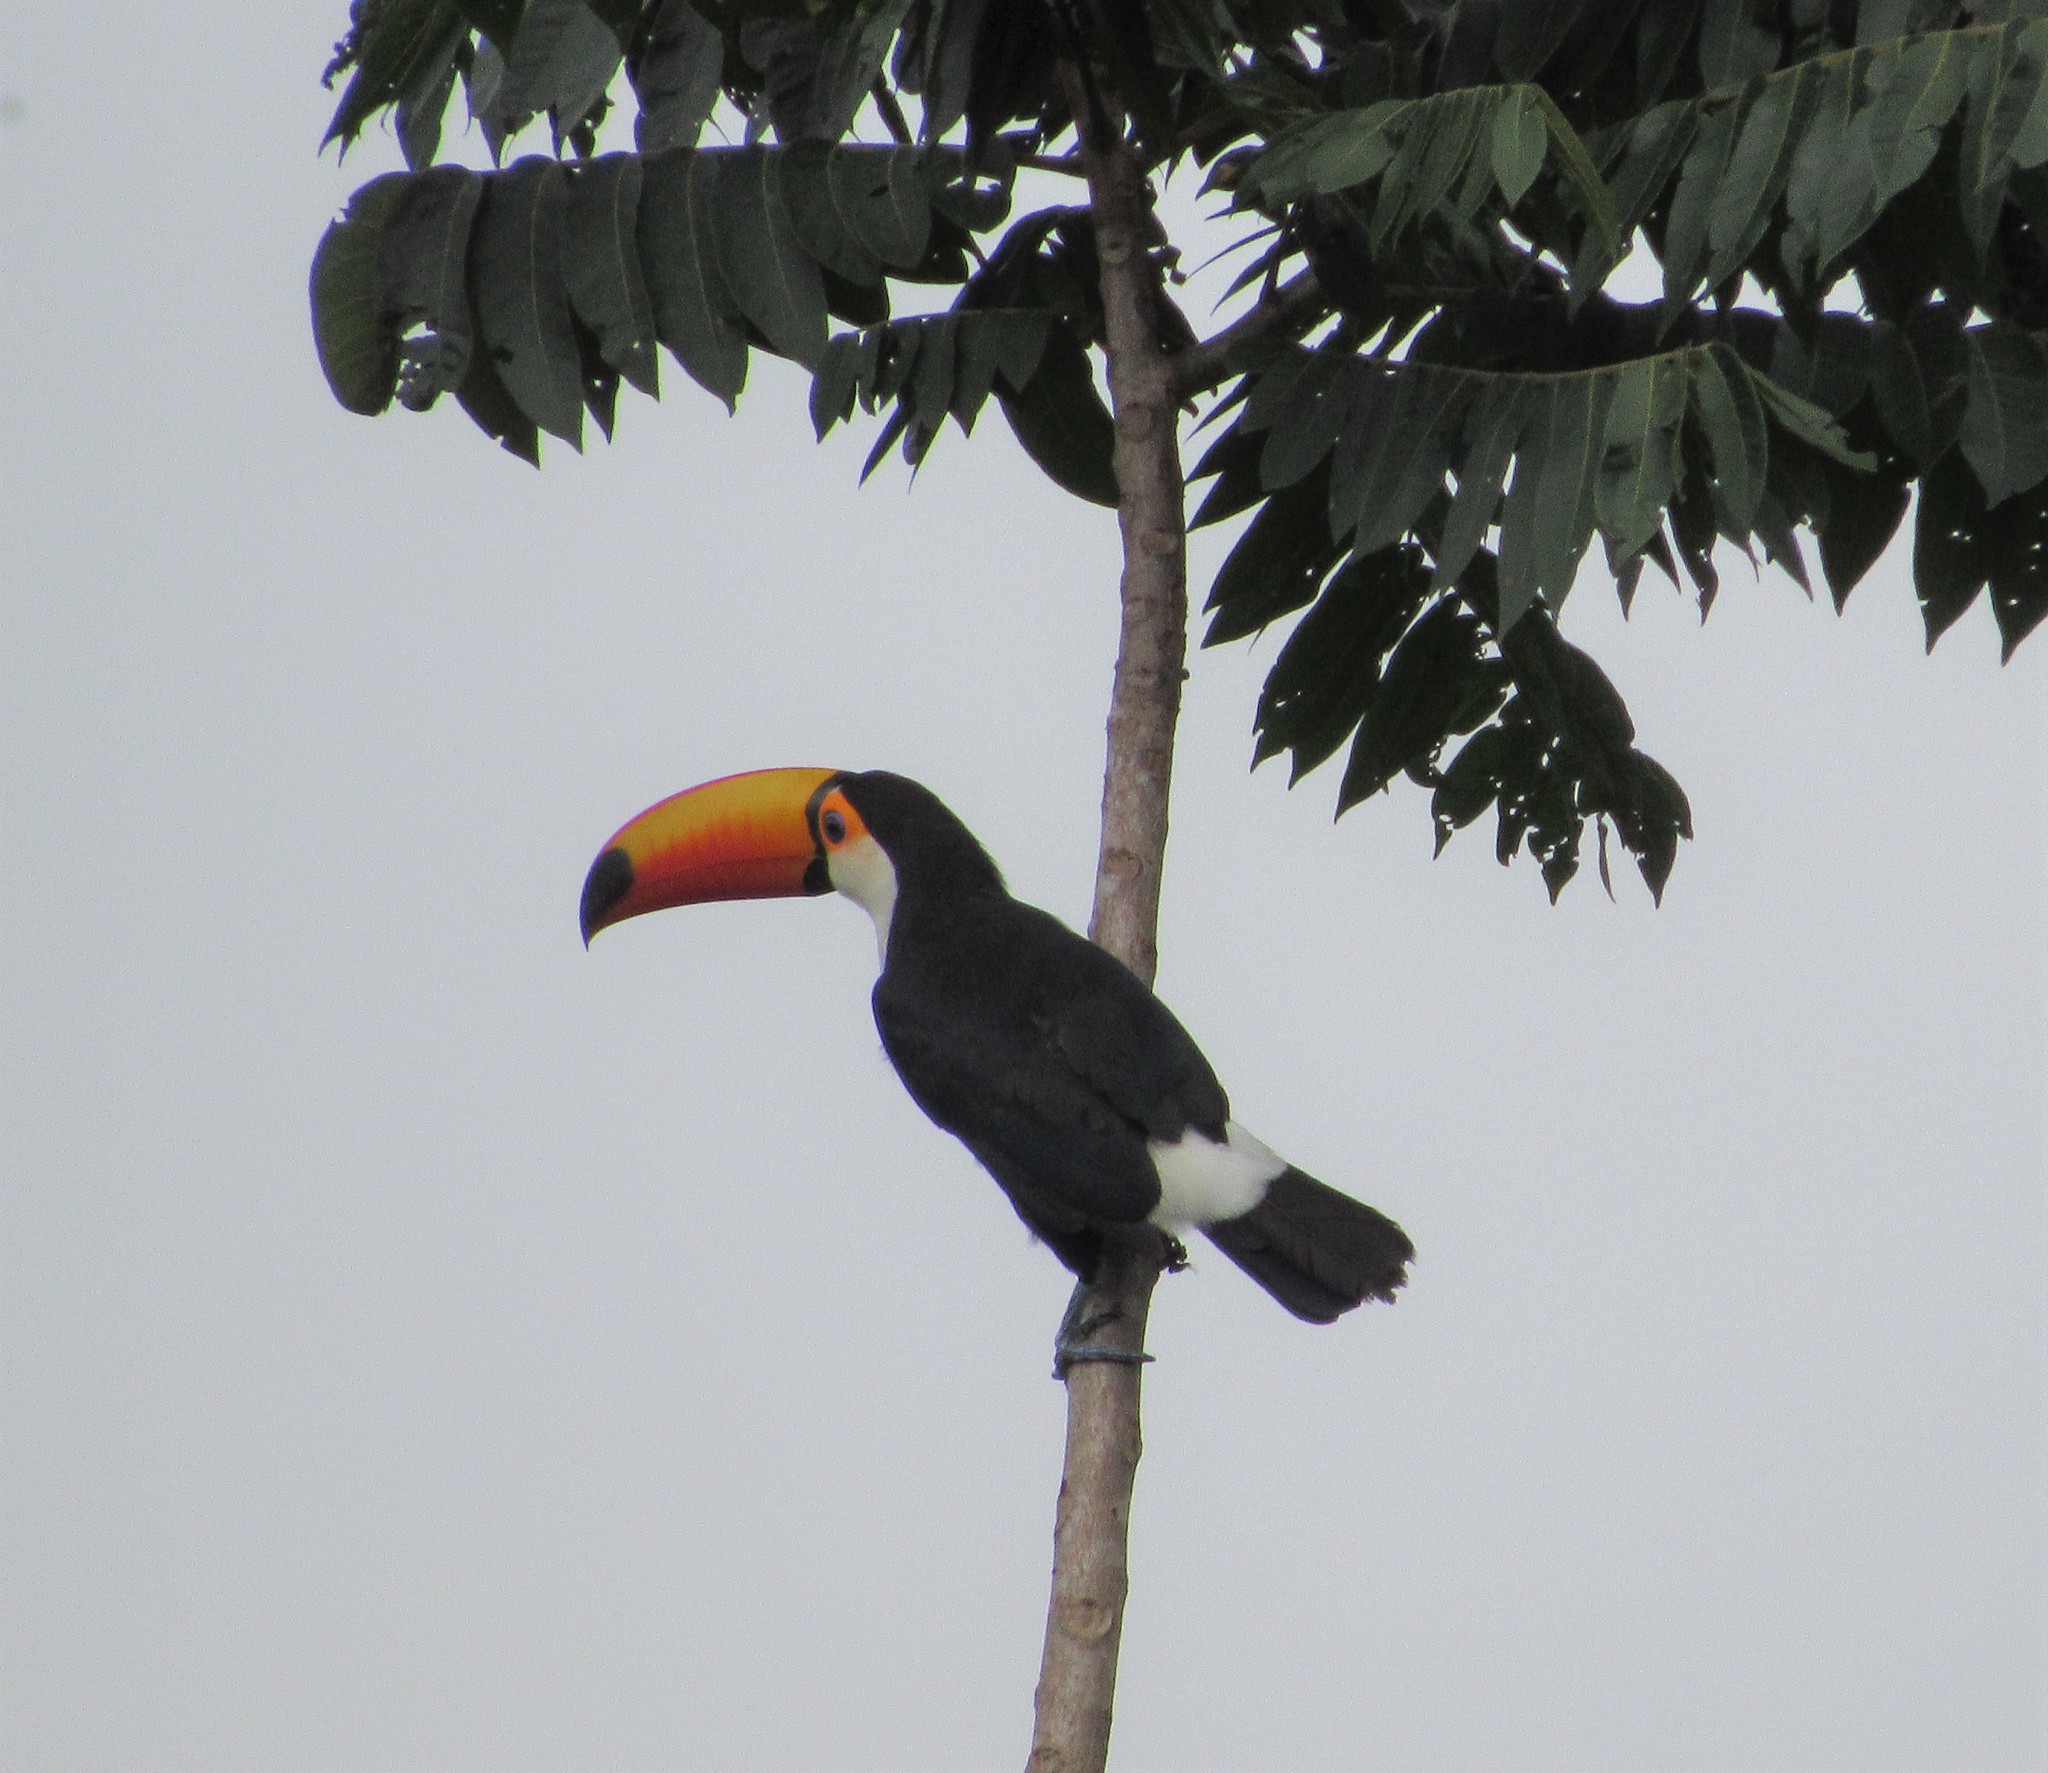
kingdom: Animalia
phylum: Chordata
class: Aves
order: Piciformes
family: Ramphastidae
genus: Ramphastos
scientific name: Ramphastos toco
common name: Toco toucan
